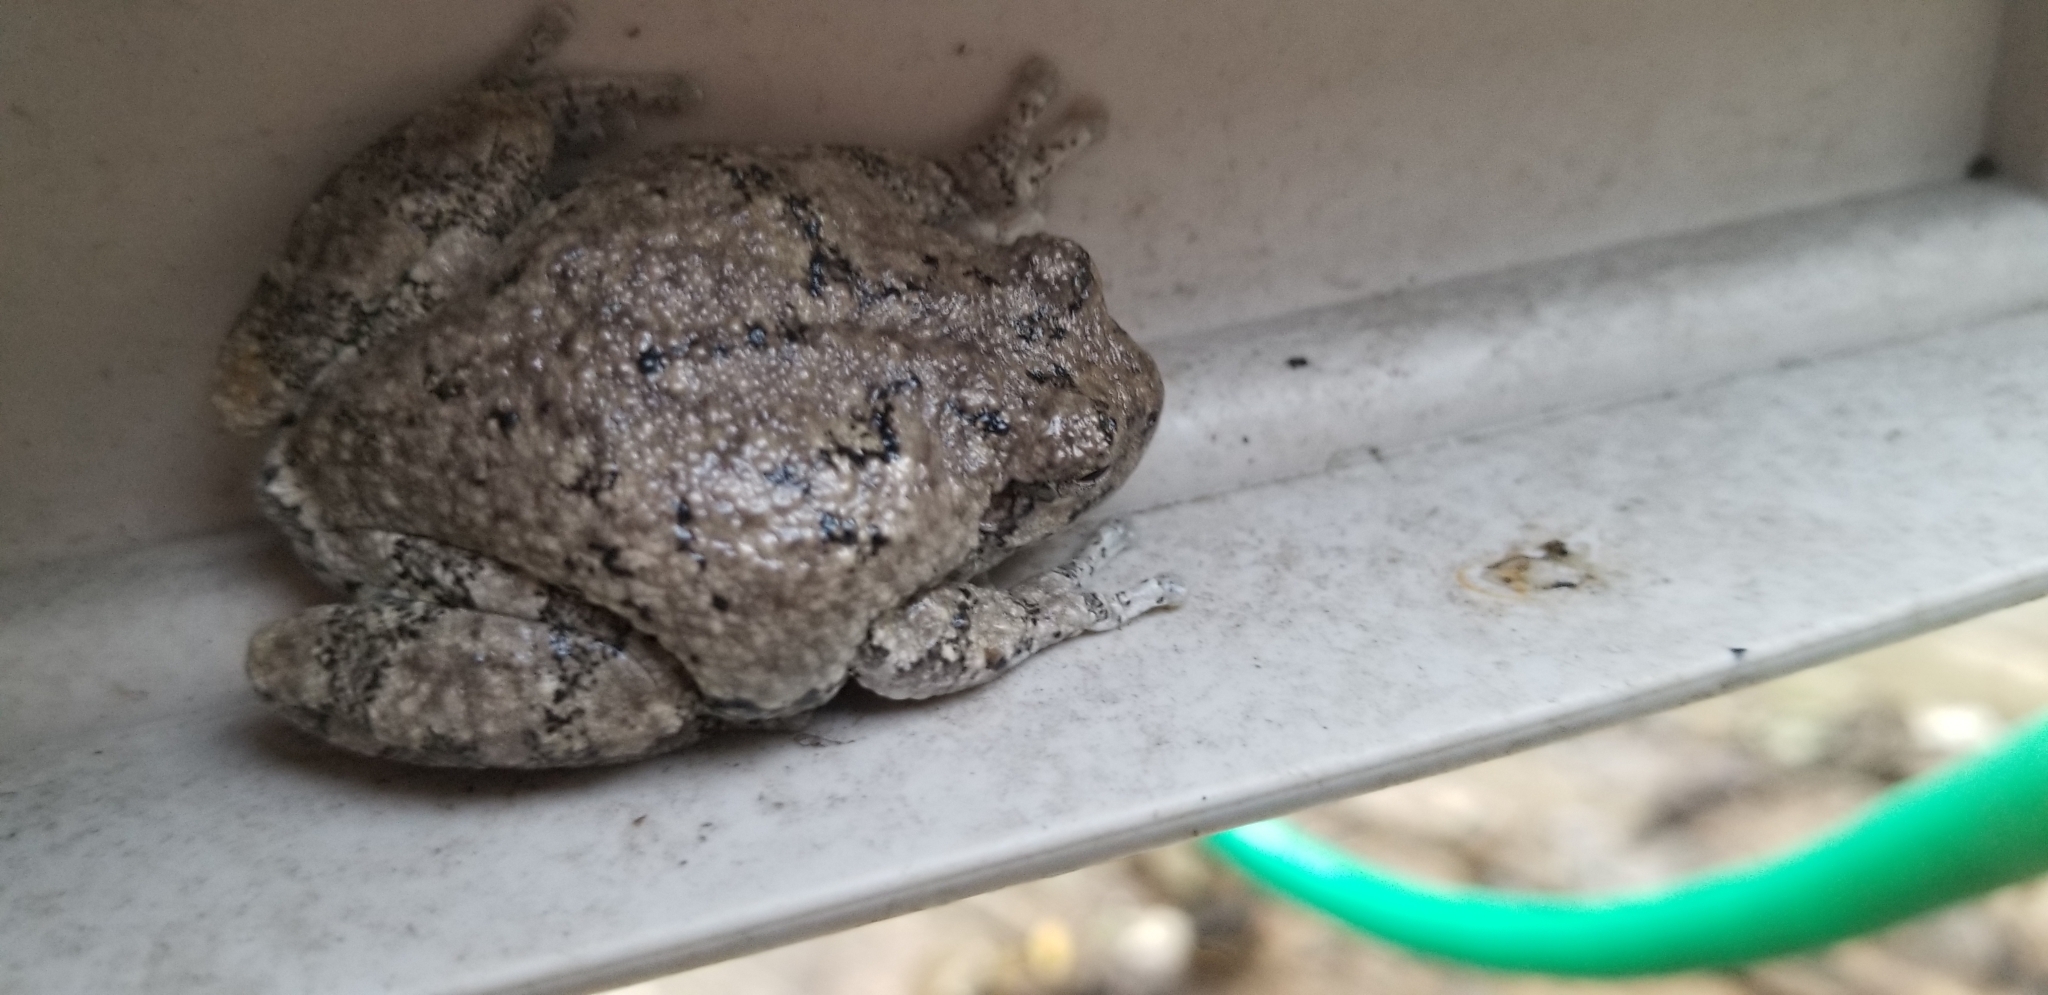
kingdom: Animalia
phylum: Chordata
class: Amphibia
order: Anura
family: Hylidae
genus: Hyla
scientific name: Hyla
